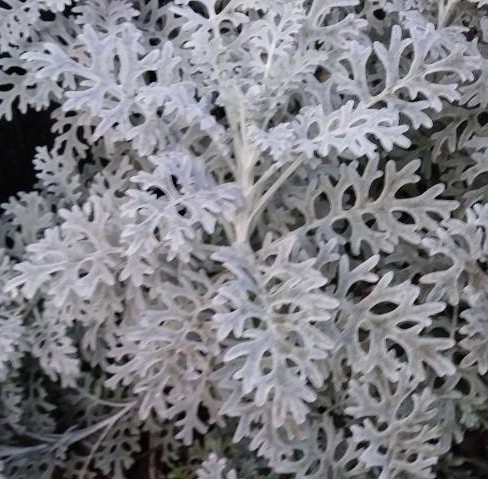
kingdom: Plantae
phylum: Tracheophyta
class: Magnoliopsida
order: Asterales
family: Asteraceae
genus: Jacobaea
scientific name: Jacobaea maritima
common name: Silver ragwort
